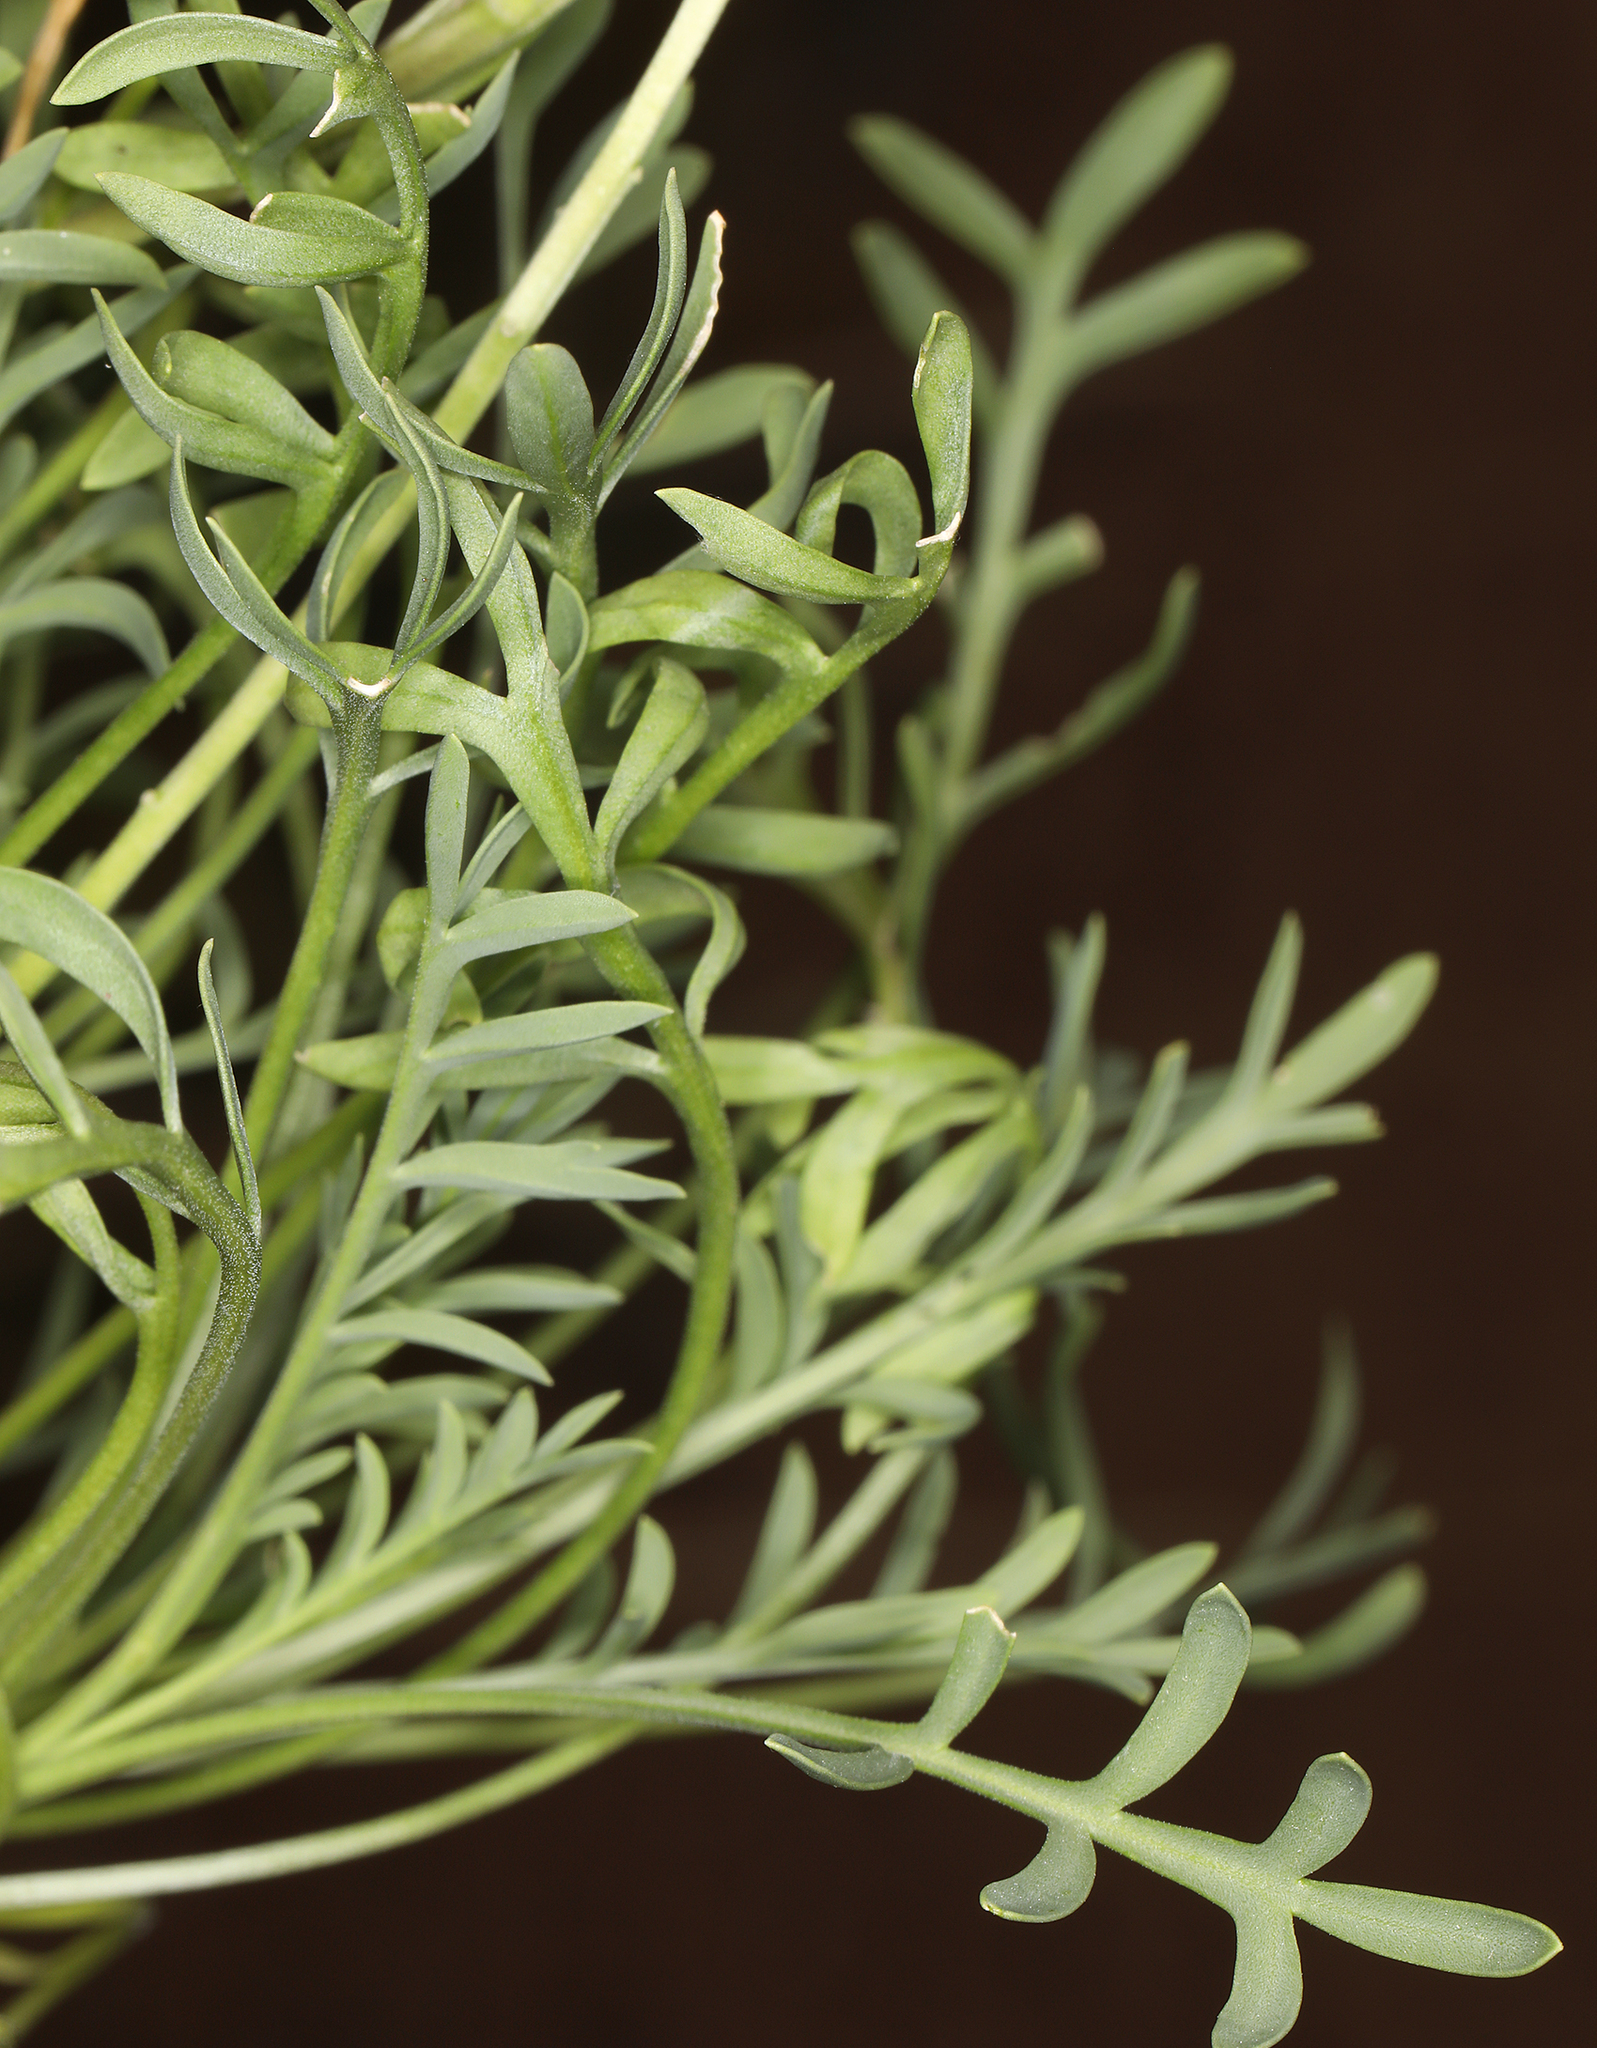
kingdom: Plantae
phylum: Tracheophyta
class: Magnoliopsida
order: Brassicales
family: Brassicaceae
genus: Lepidium
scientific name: Lepidium montanum
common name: Mountain pepperplant
